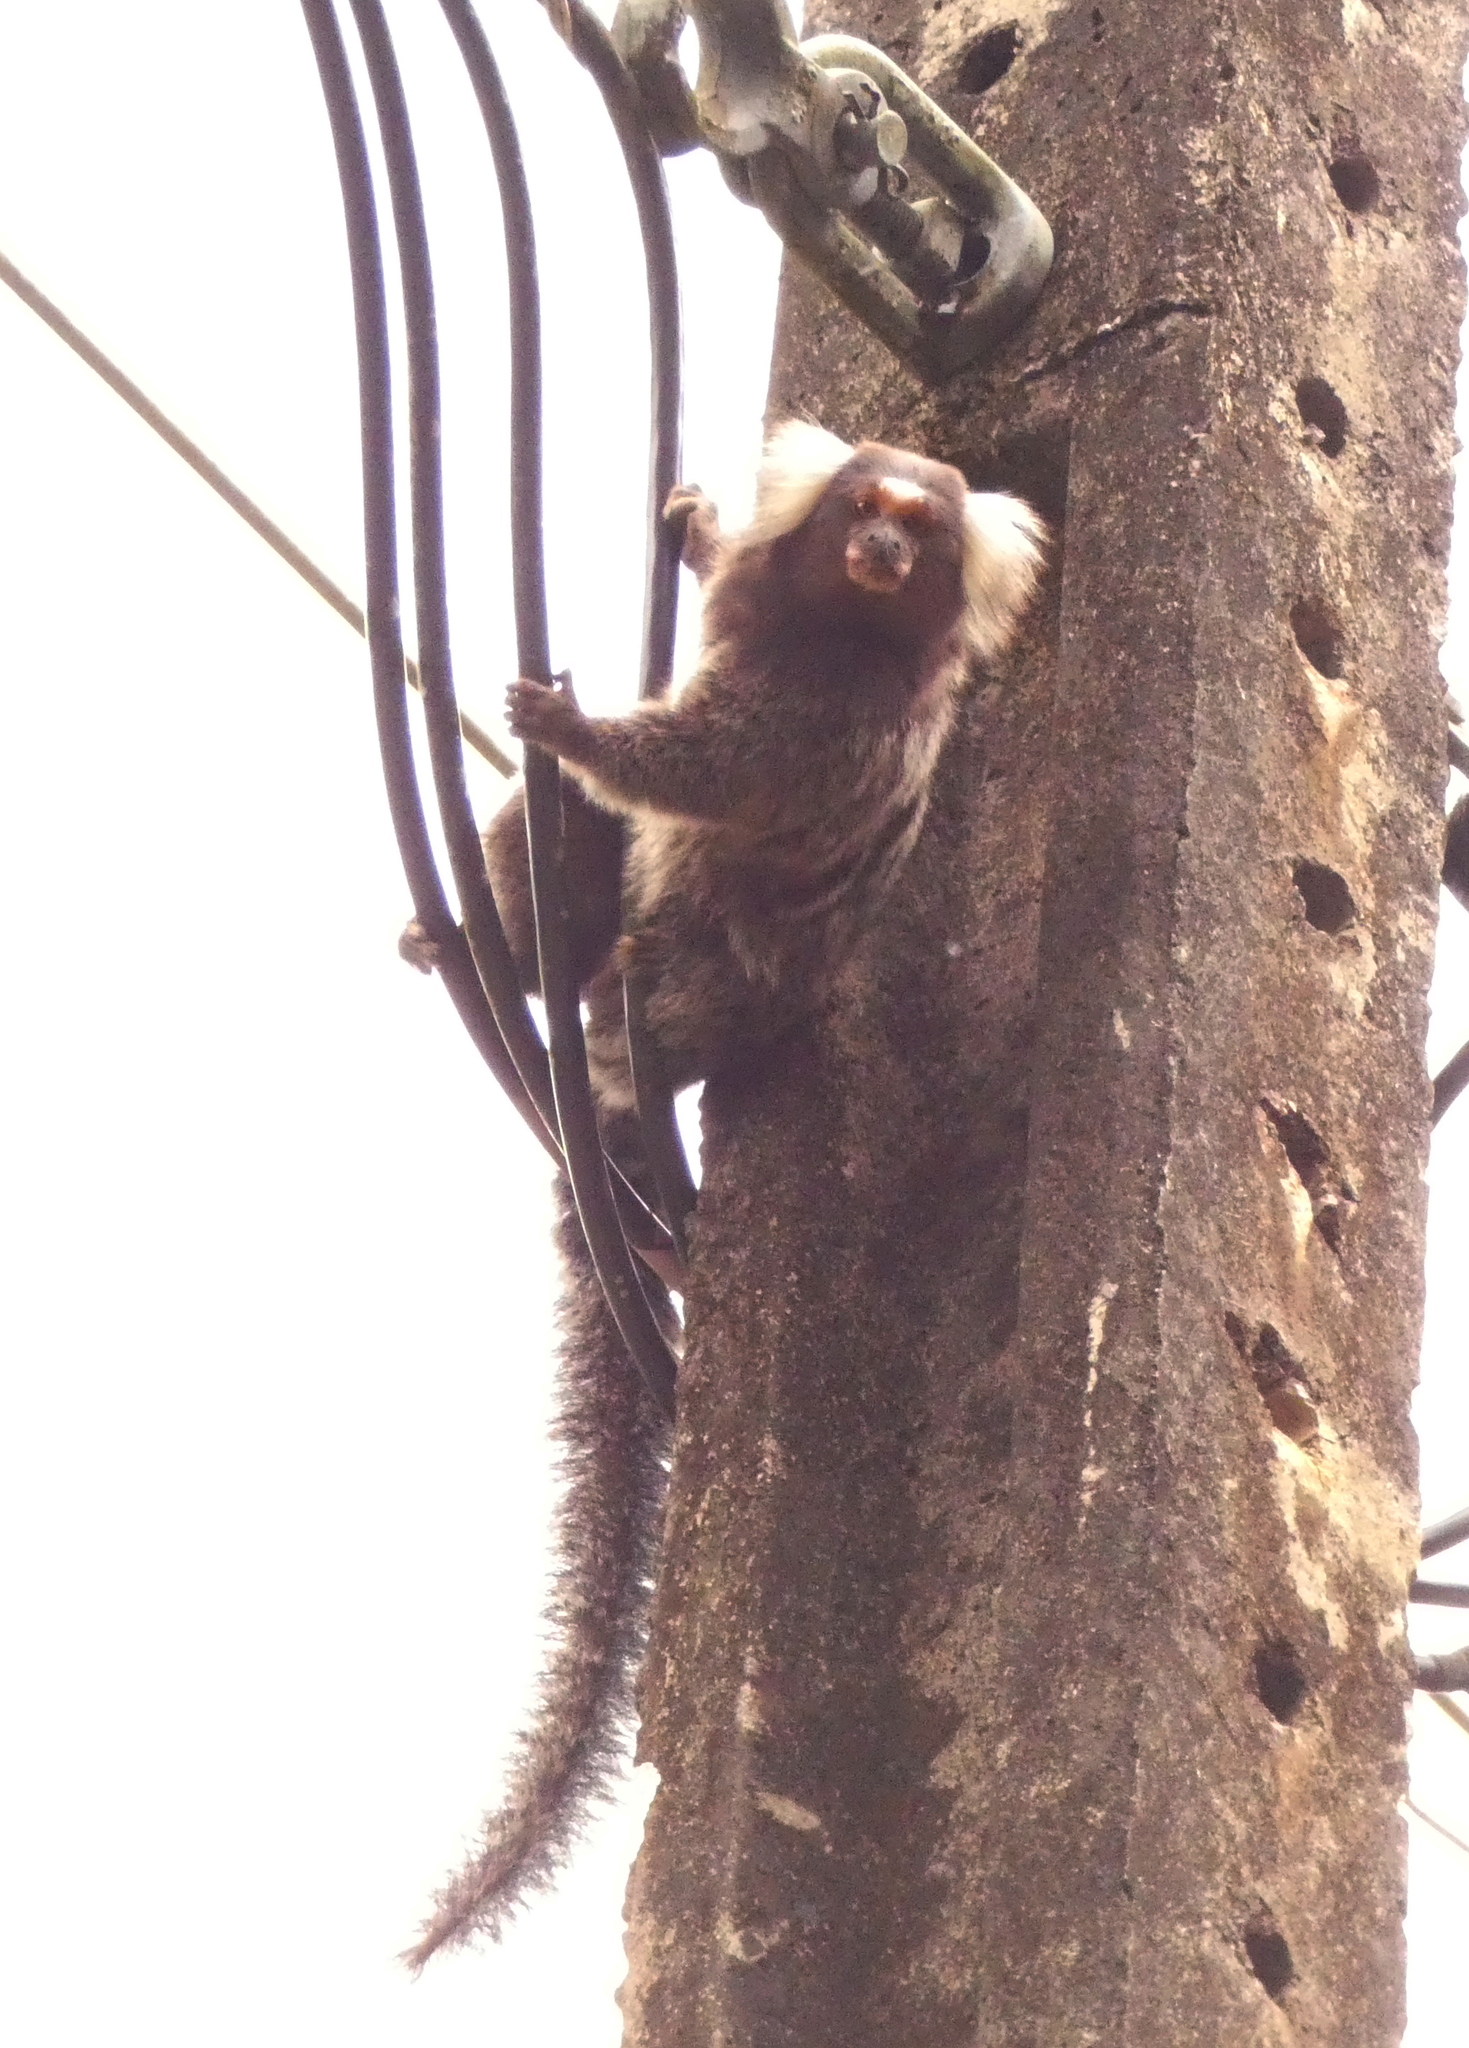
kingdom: Animalia
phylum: Chordata
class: Mammalia
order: Primates
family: Callitrichidae
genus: Callithrix
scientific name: Callithrix jacchus
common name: Common marmoset
